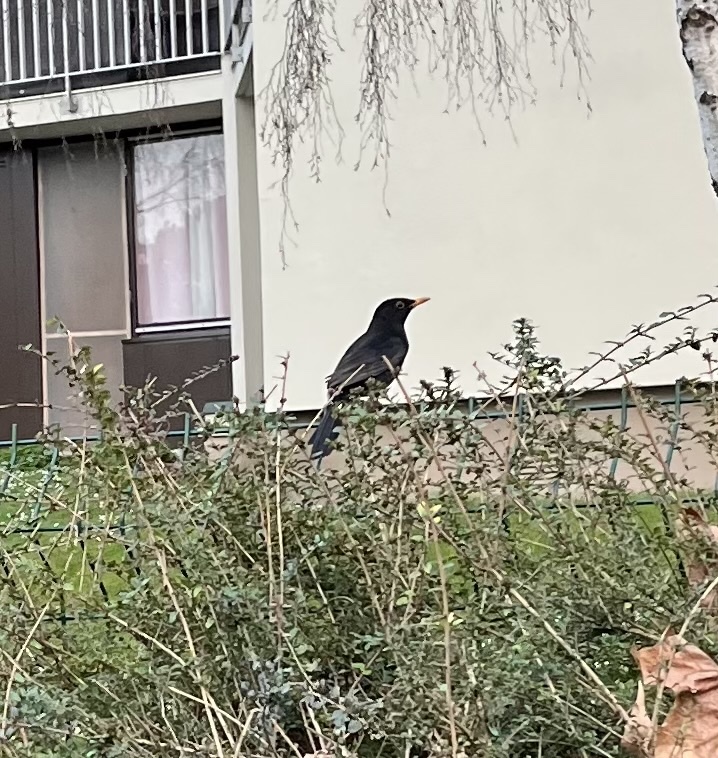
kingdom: Animalia
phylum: Chordata
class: Aves
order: Passeriformes
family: Turdidae
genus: Turdus
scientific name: Turdus merula
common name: Common blackbird
